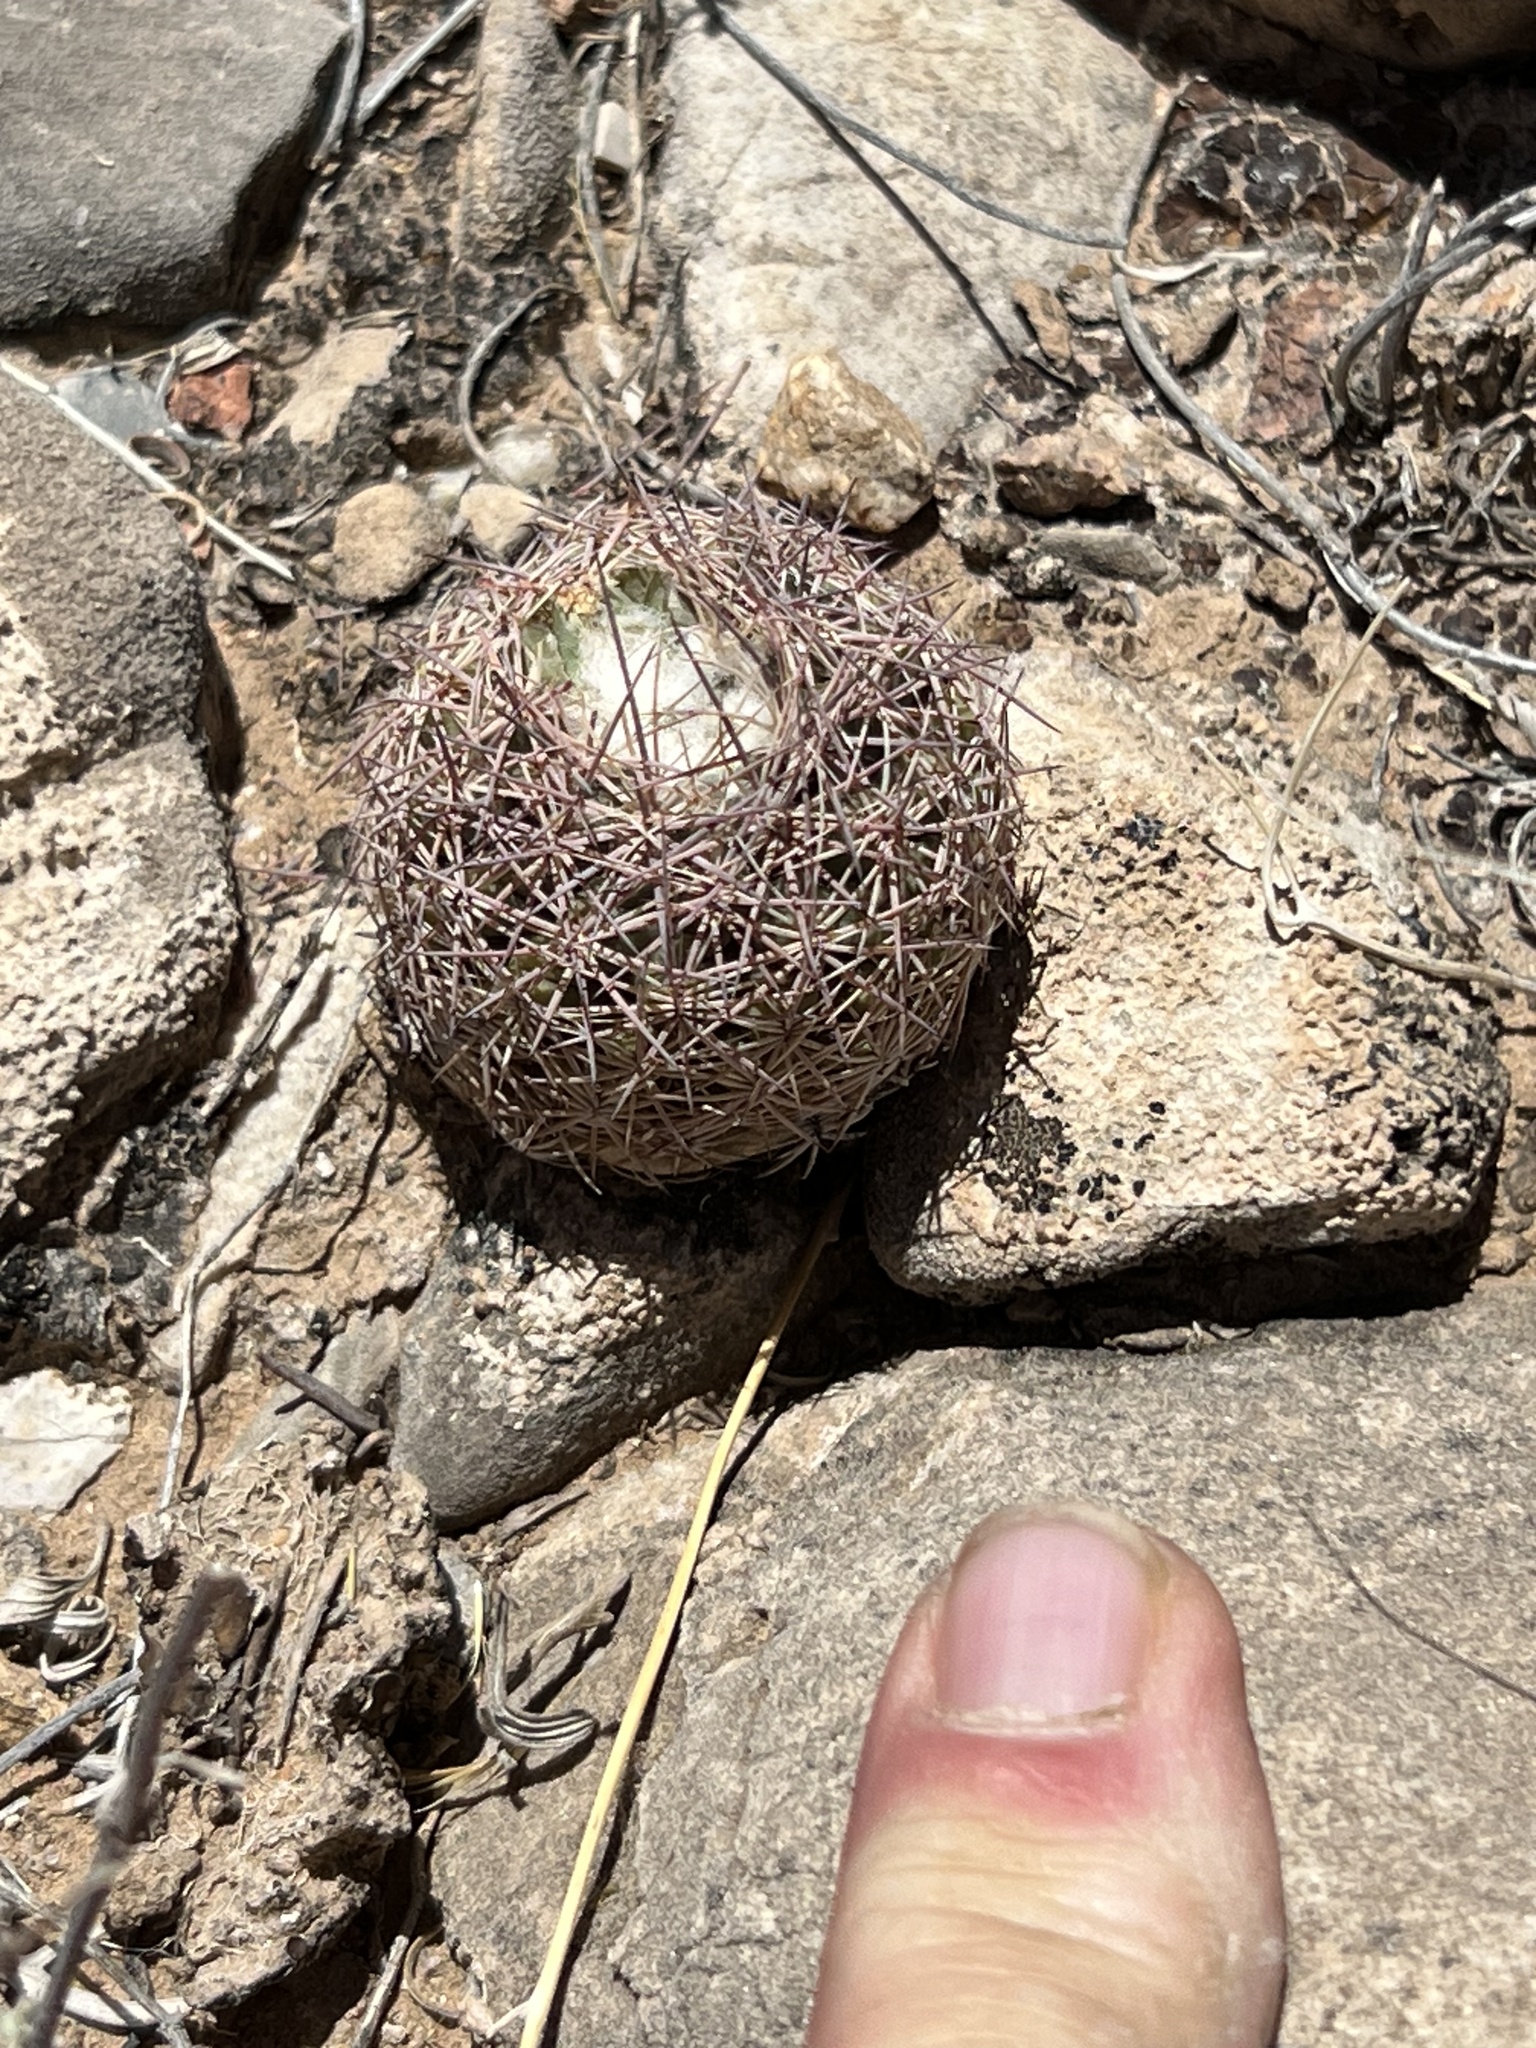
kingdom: Plantae
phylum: Tracheophyta
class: Magnoliopsida
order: Caryophyllales
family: Cactaceae
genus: Sclerocactus
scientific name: Sclerocactus intertextus
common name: White fish-hook cactus
